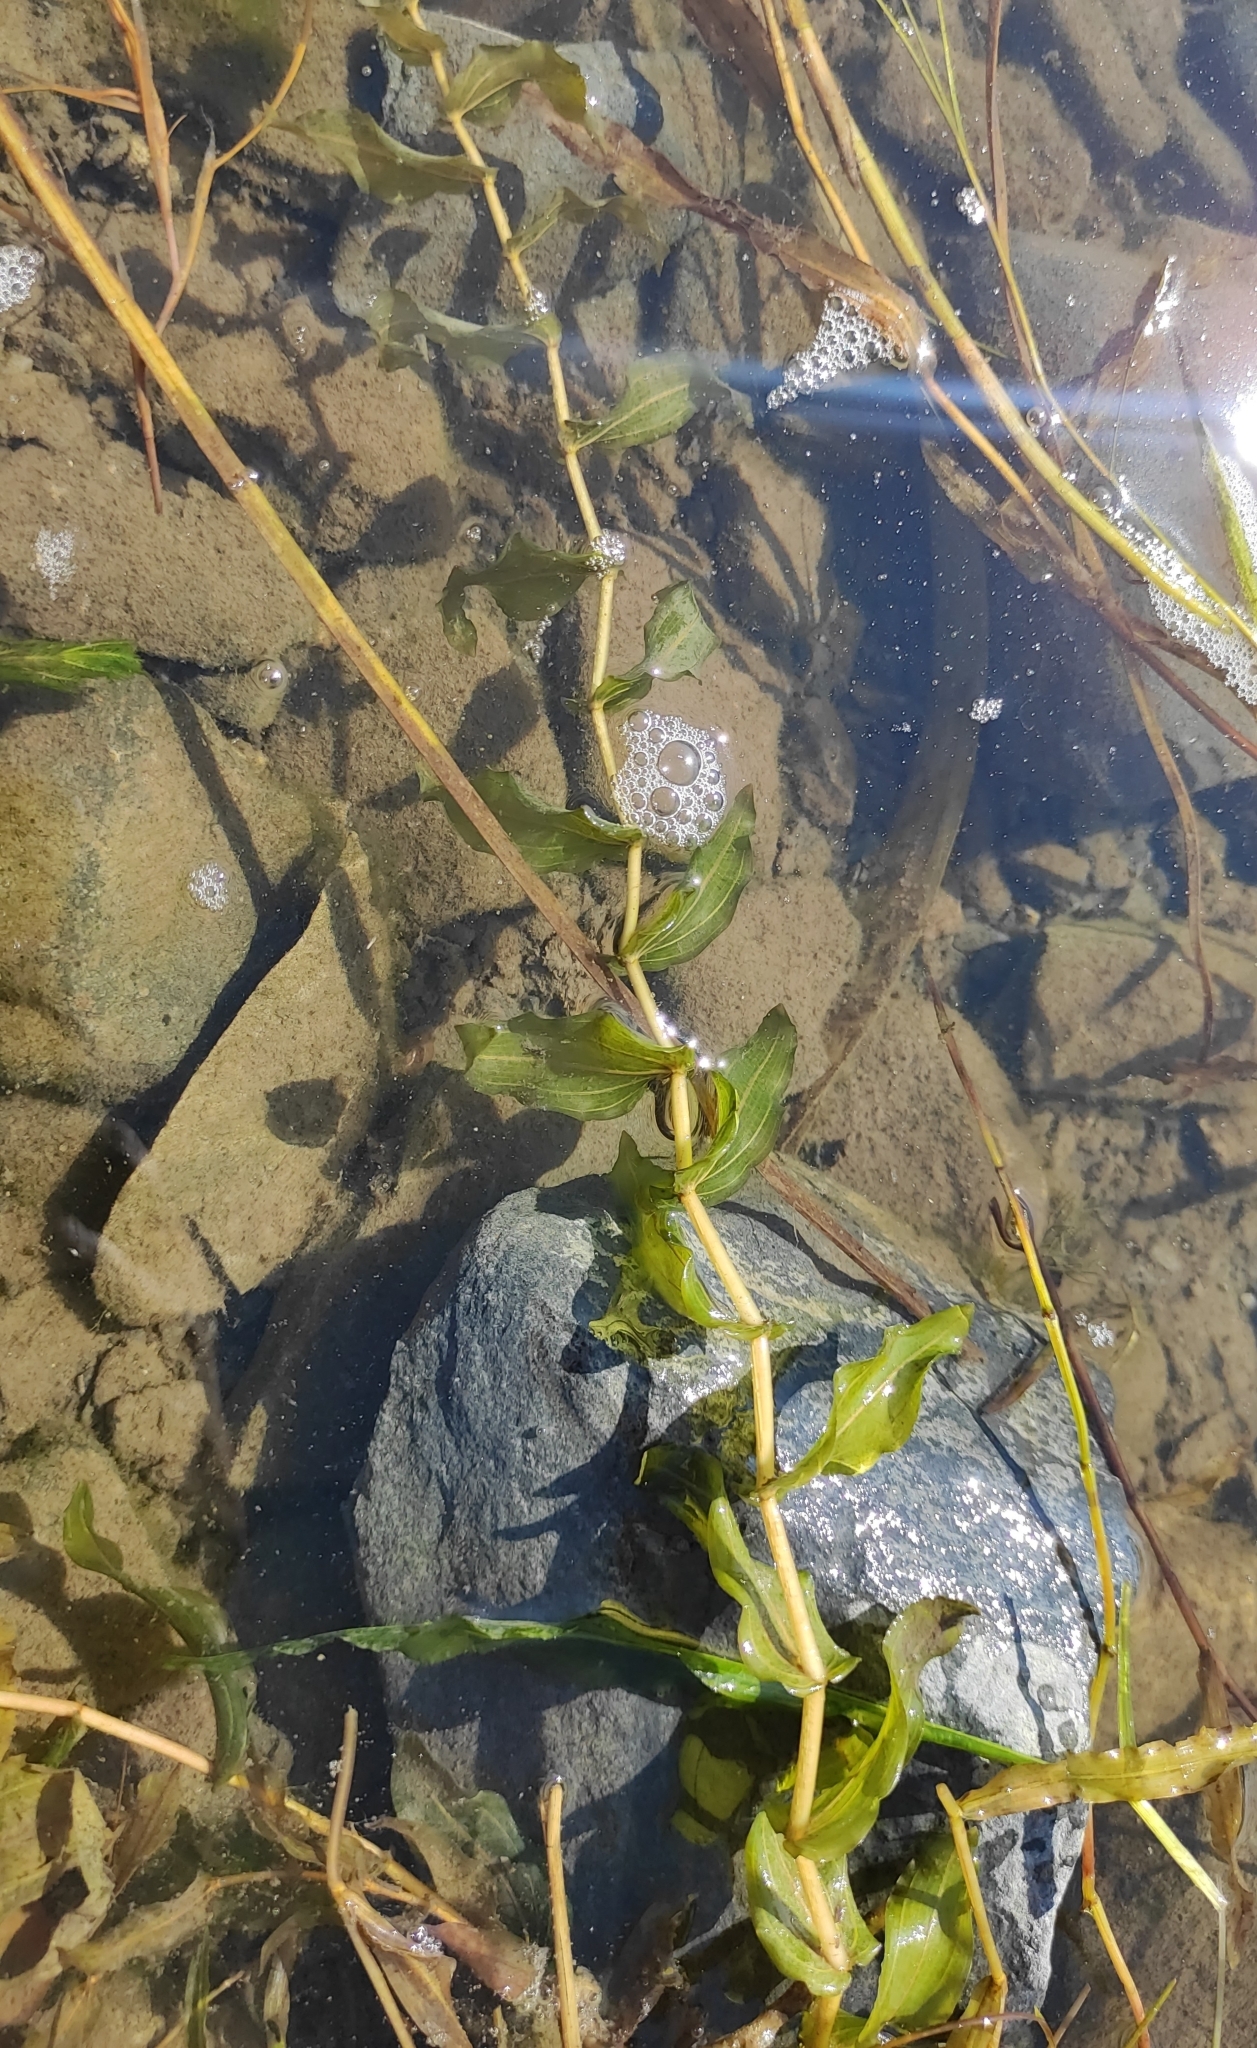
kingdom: Plantae
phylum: Tracheophyta
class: Liliopsida
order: Alismatales
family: Potamogetonaceae
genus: Potamogeton
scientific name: Potamogeton perfoliatus
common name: Perfoliate pondweed
